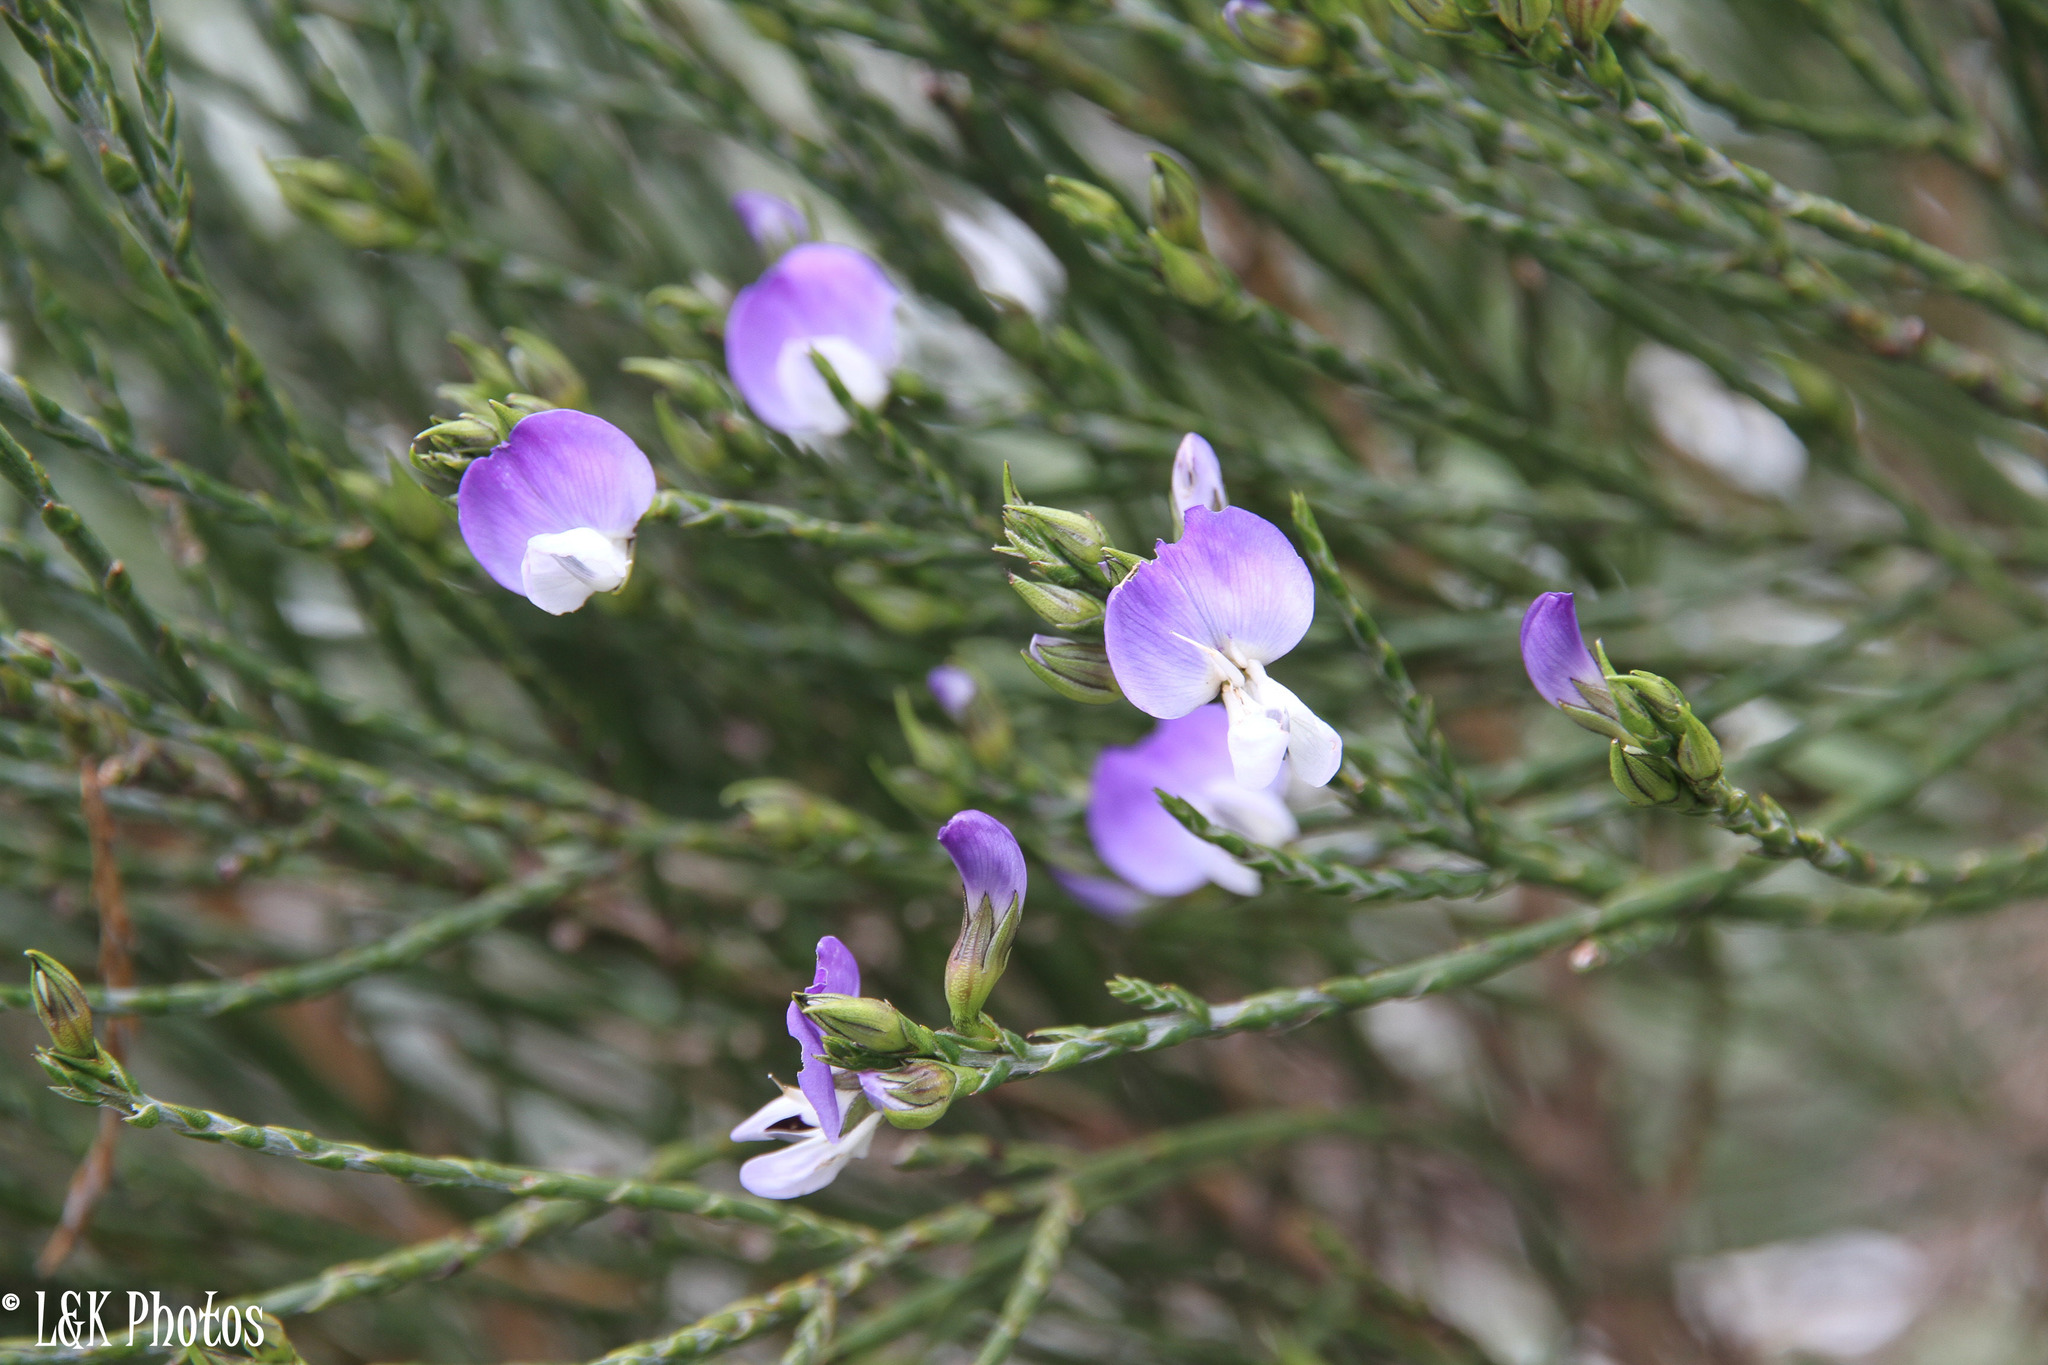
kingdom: Plantae
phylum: Tracheophyta
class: Magnoliopsida
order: Fabales
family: Fabaceae
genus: Psoralea
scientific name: Psoralea aphylla
